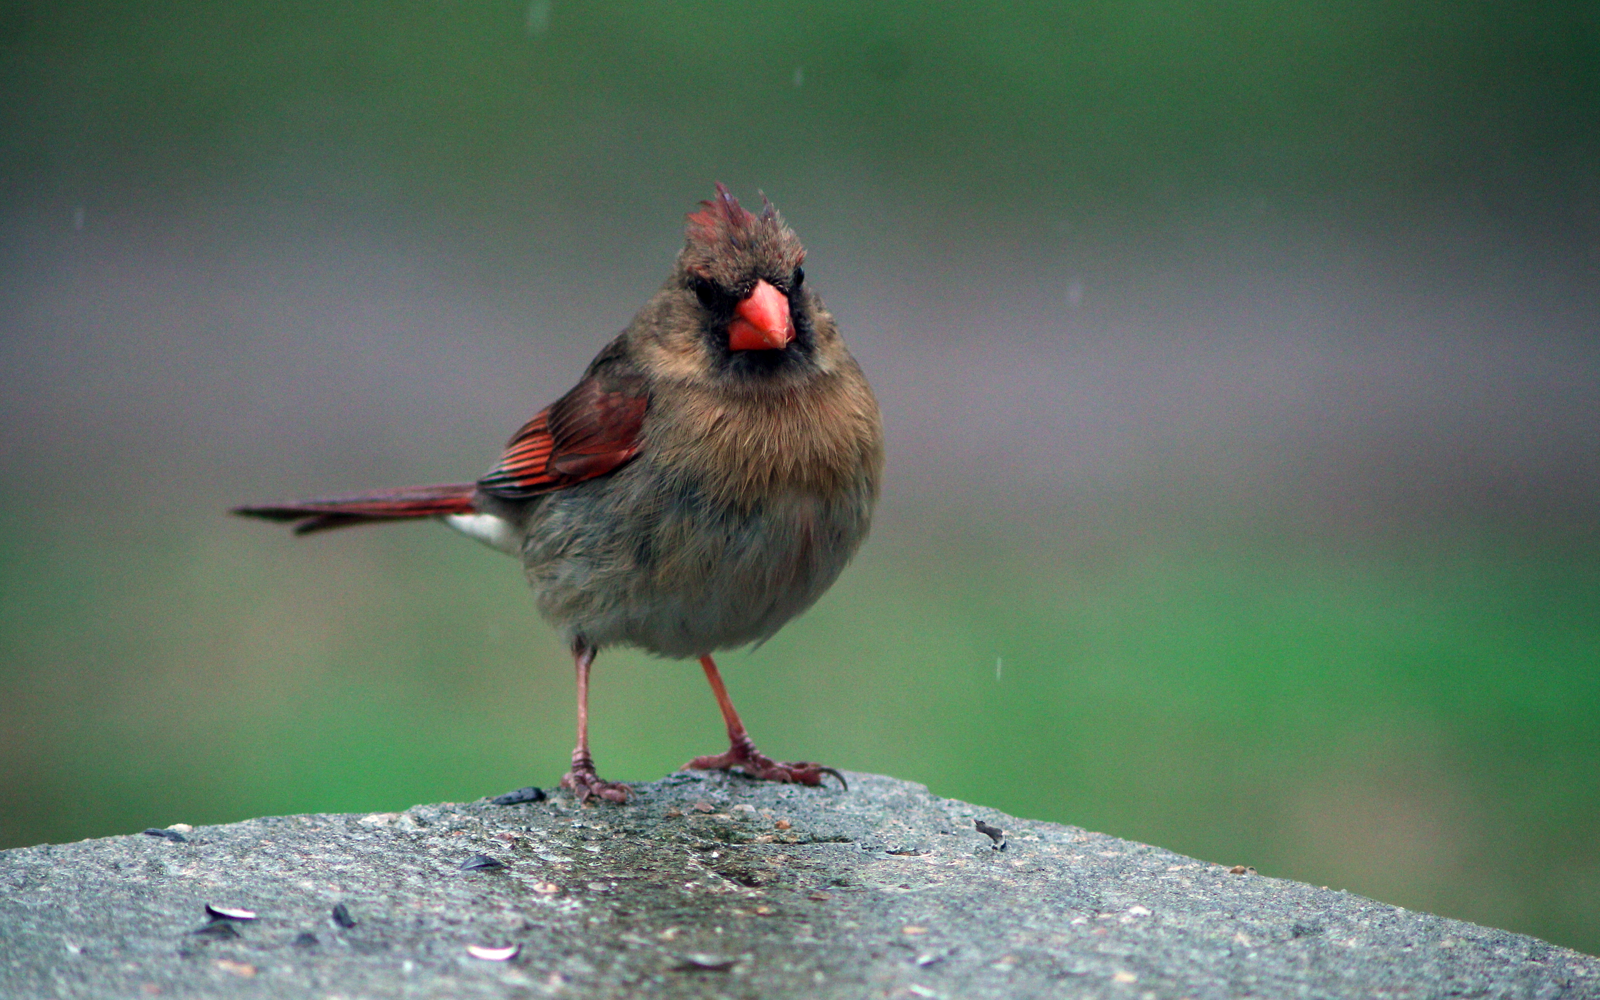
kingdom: Animalia
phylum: Chordata
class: Aves
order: Passeriformes
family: Cardinalidae
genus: Cardinalis
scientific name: Cardinalis cardinalis
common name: Northern cardinal
